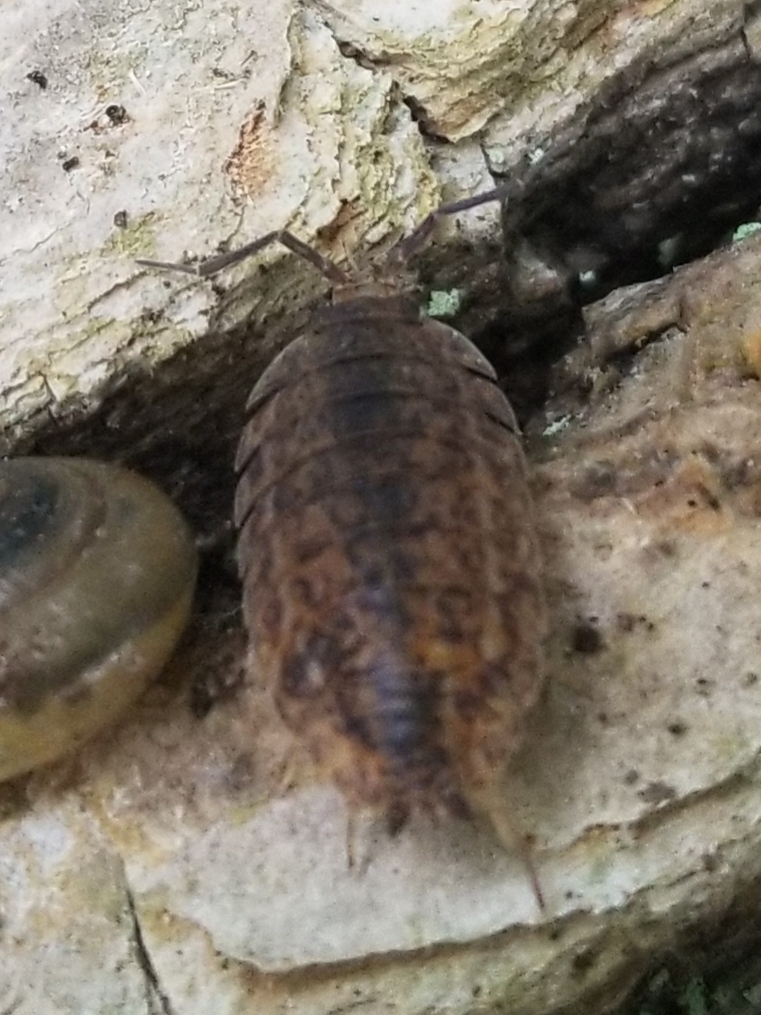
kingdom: Animalia
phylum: Arthropoda
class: Malacostraca
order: Isopoda
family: Trachelipodidae
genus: Trachelipus
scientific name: Trachelipus rathkii
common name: Isopod
